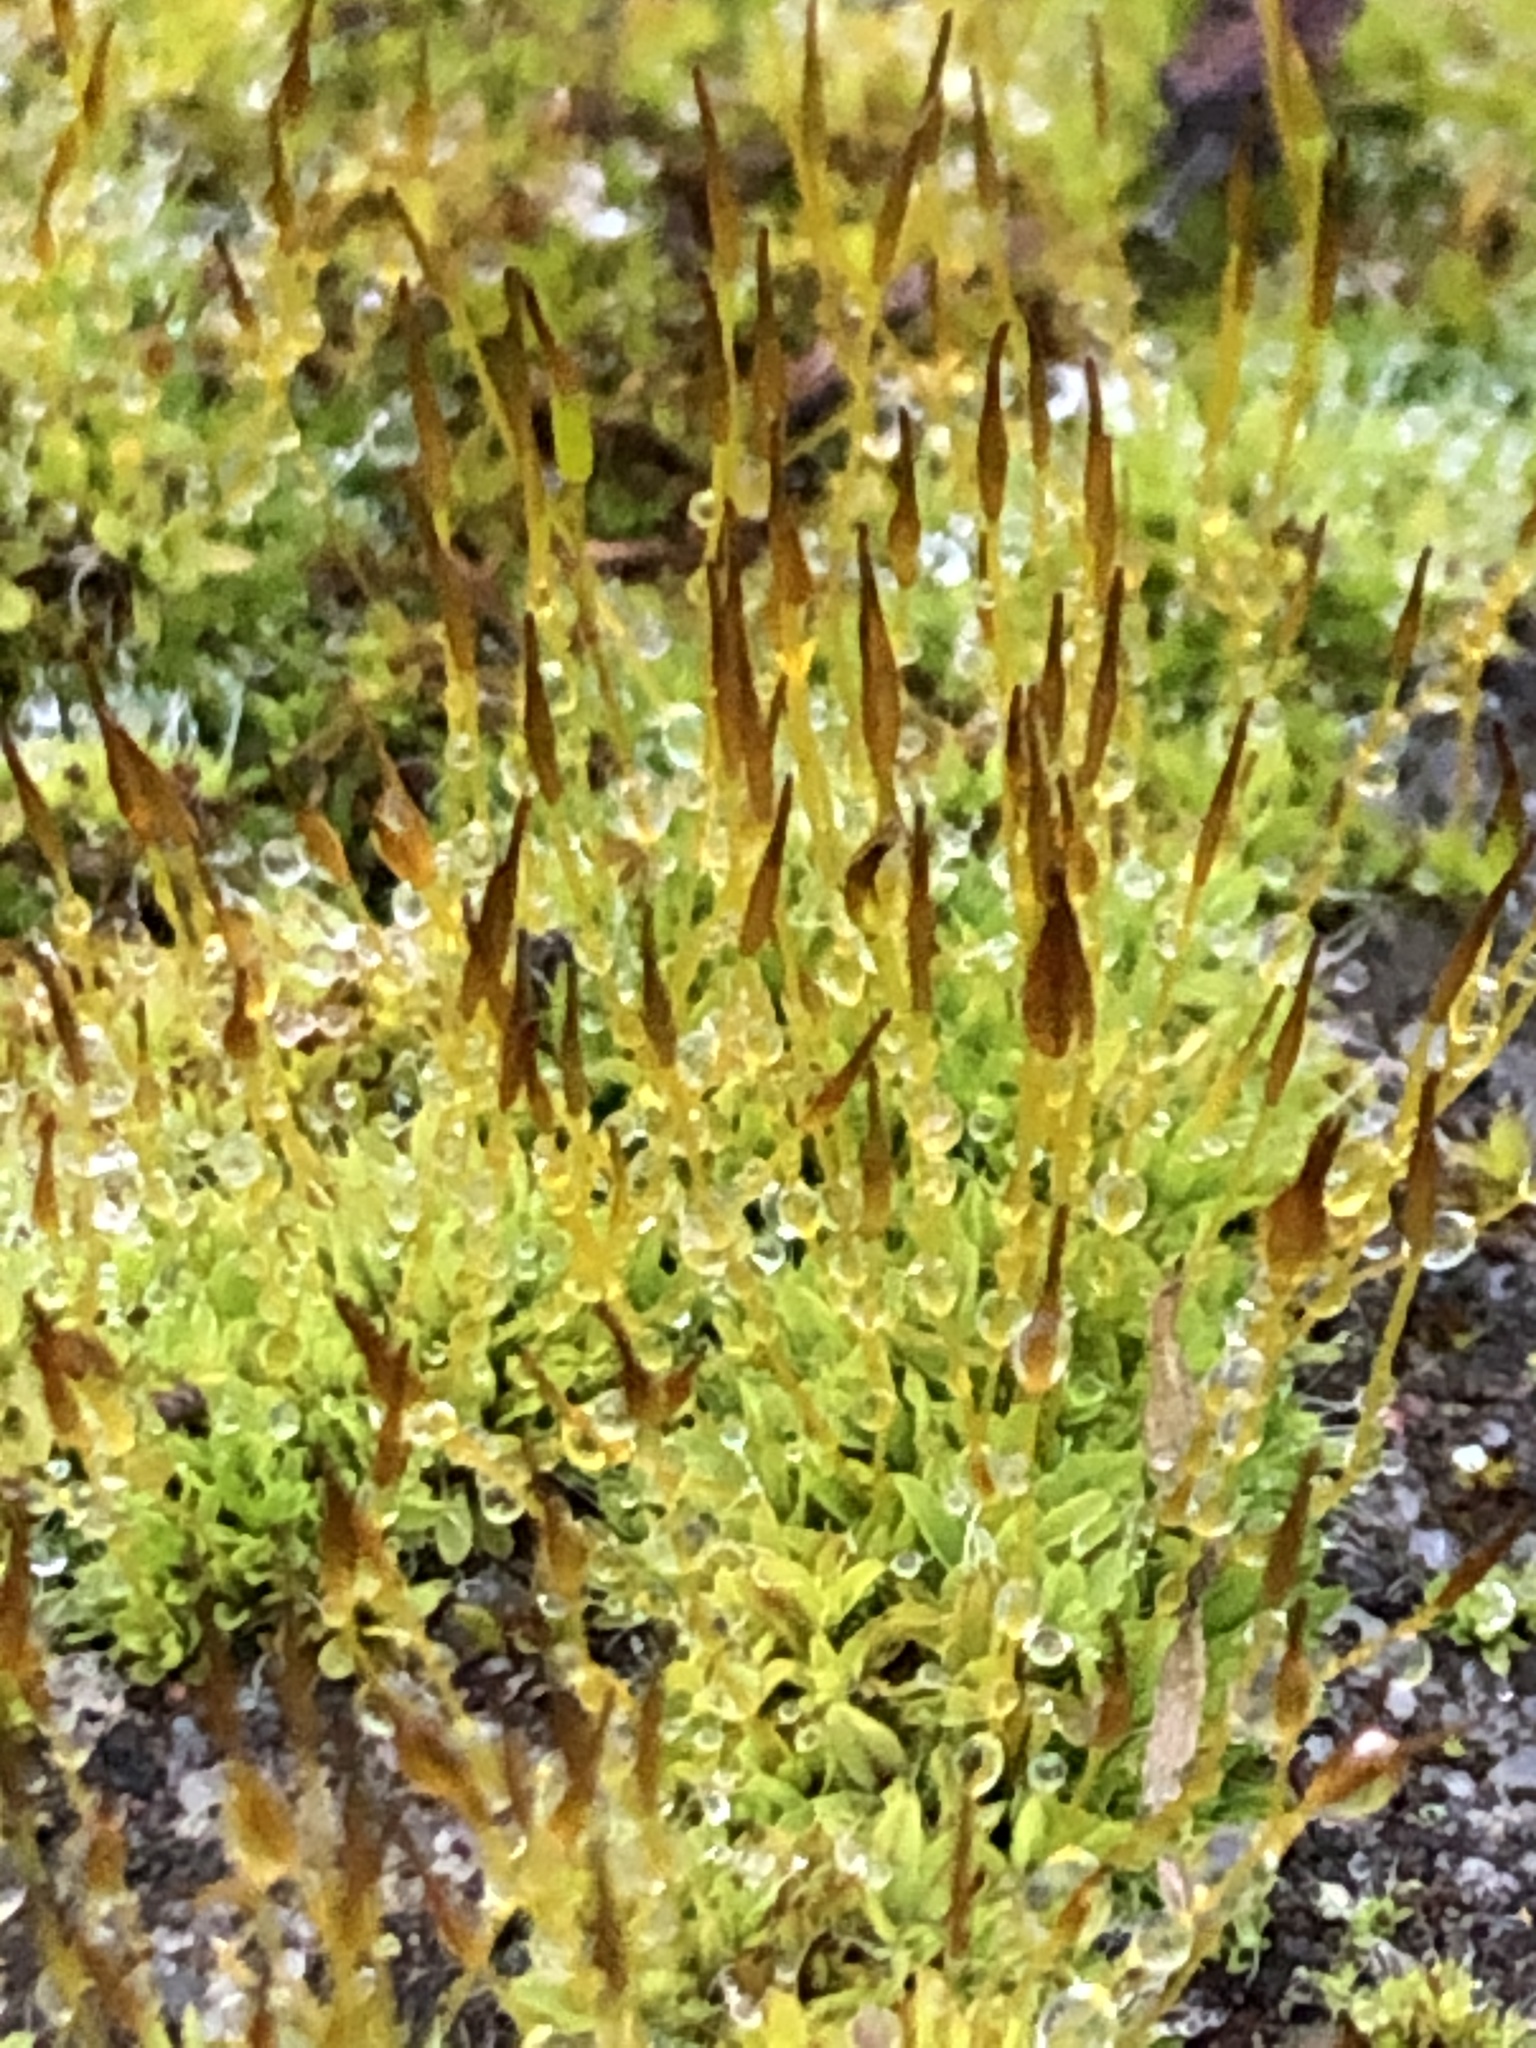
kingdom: Plantae
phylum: Bryophyta
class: Bryopsida
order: Pottiales
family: Pottiaceae
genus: Tortula
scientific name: Tortula muralis
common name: Wall screw-moss
